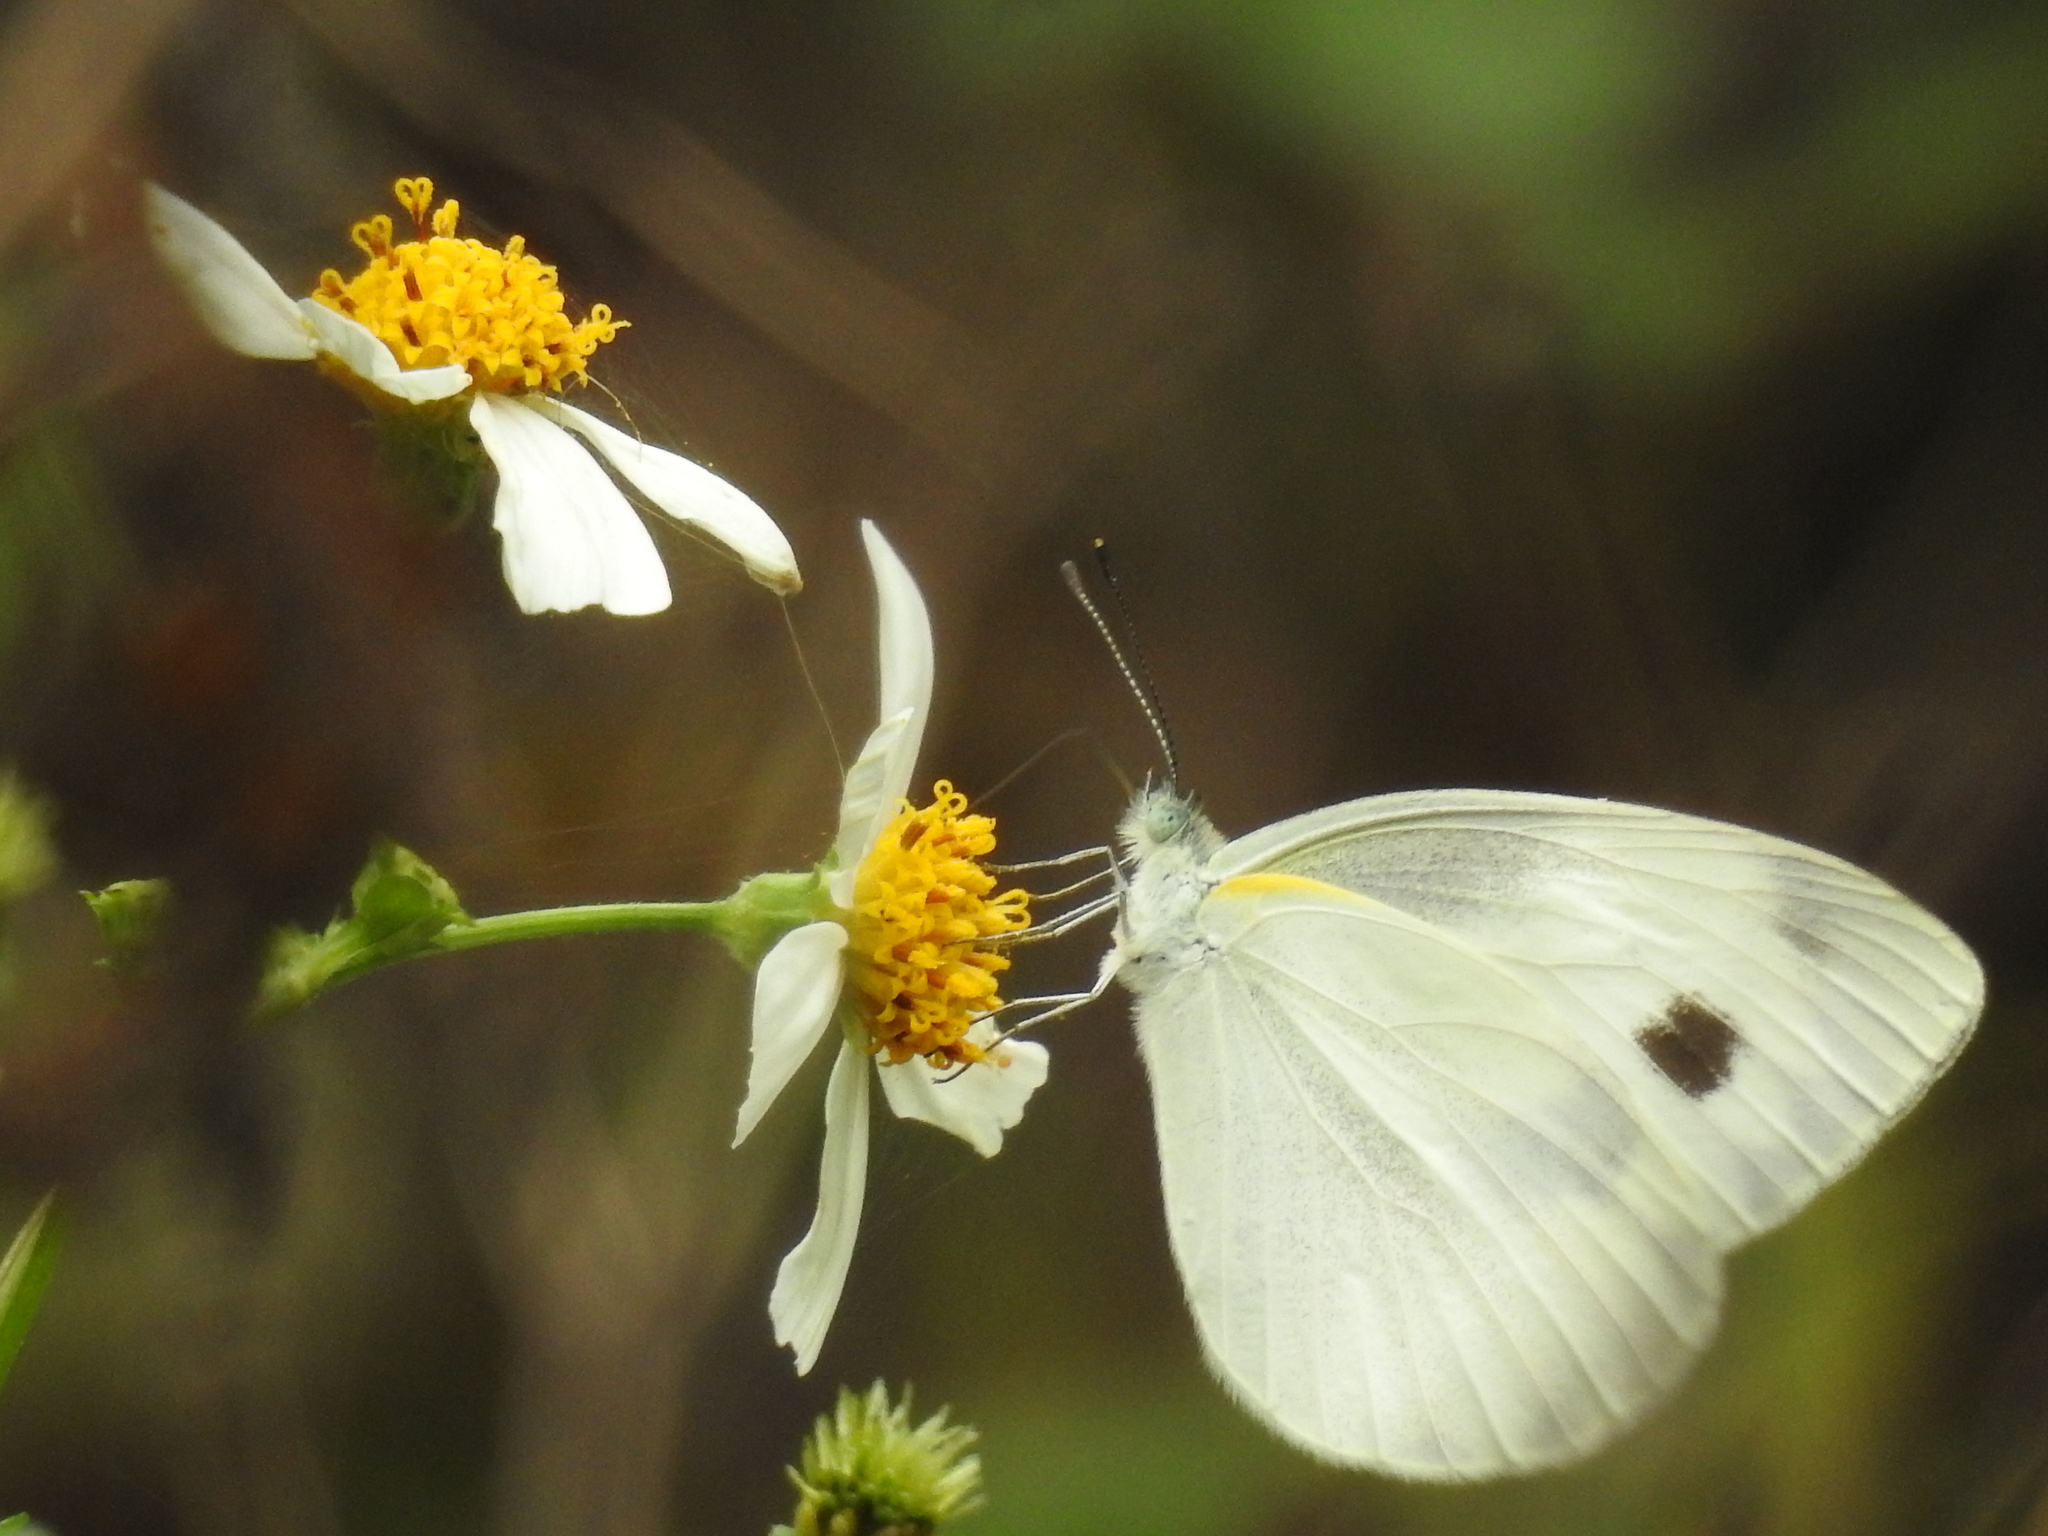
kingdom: Animalia
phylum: Arthropoda
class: Insecta
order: Lepidoptera
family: Pieridae
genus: Pieris
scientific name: Pieris canidia
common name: Indian cabbage white
